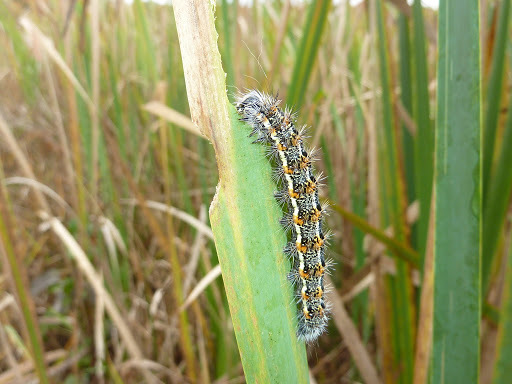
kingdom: Animalia
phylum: Arthropoda
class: Insecta
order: Lepidoptera
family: Noctuidae
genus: Acronicta
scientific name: Acronicta insularis
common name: Henry's marsh moth
